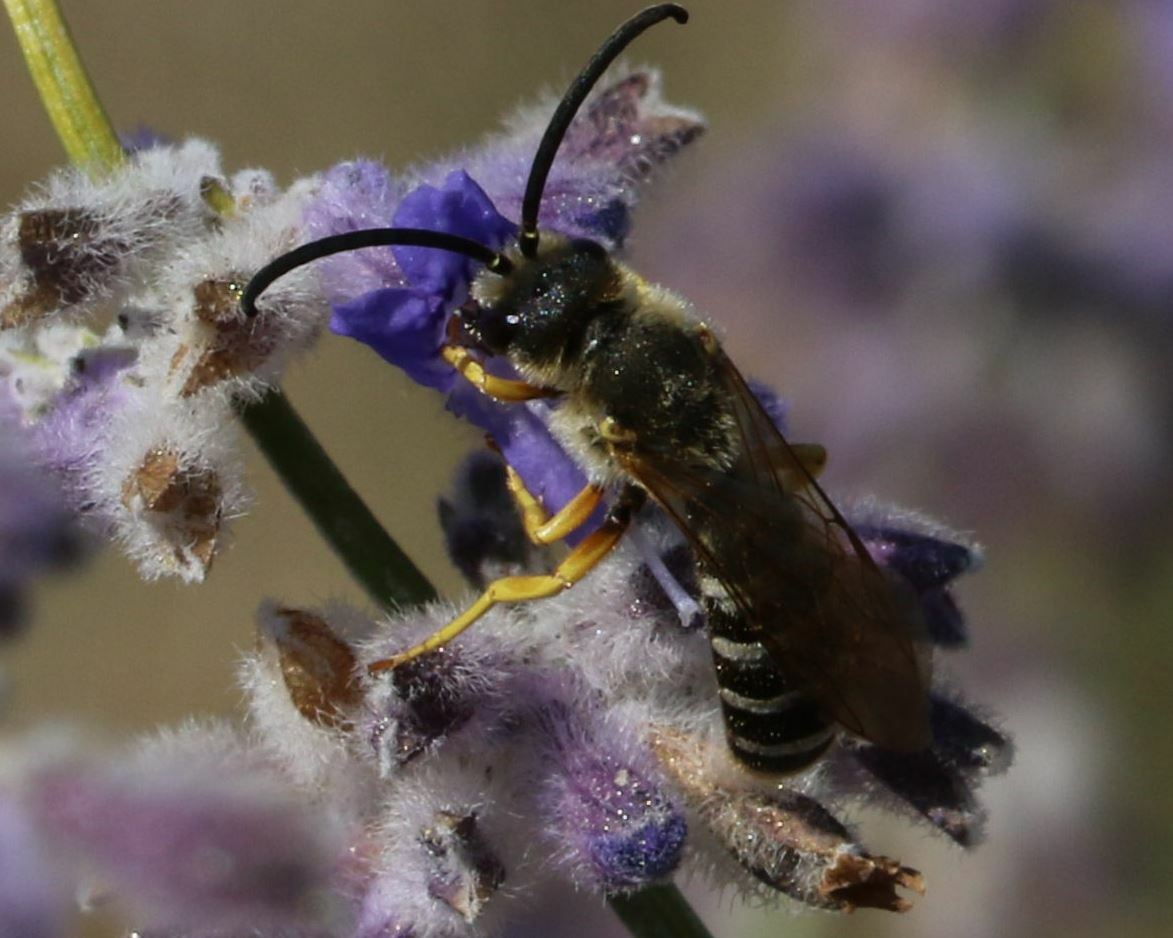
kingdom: Animalia
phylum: Arthropoda
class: Insecta
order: Hymenoptera
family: Halictidae
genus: Halictus
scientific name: Halictus scabiosae
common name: Great banded furrow bee
